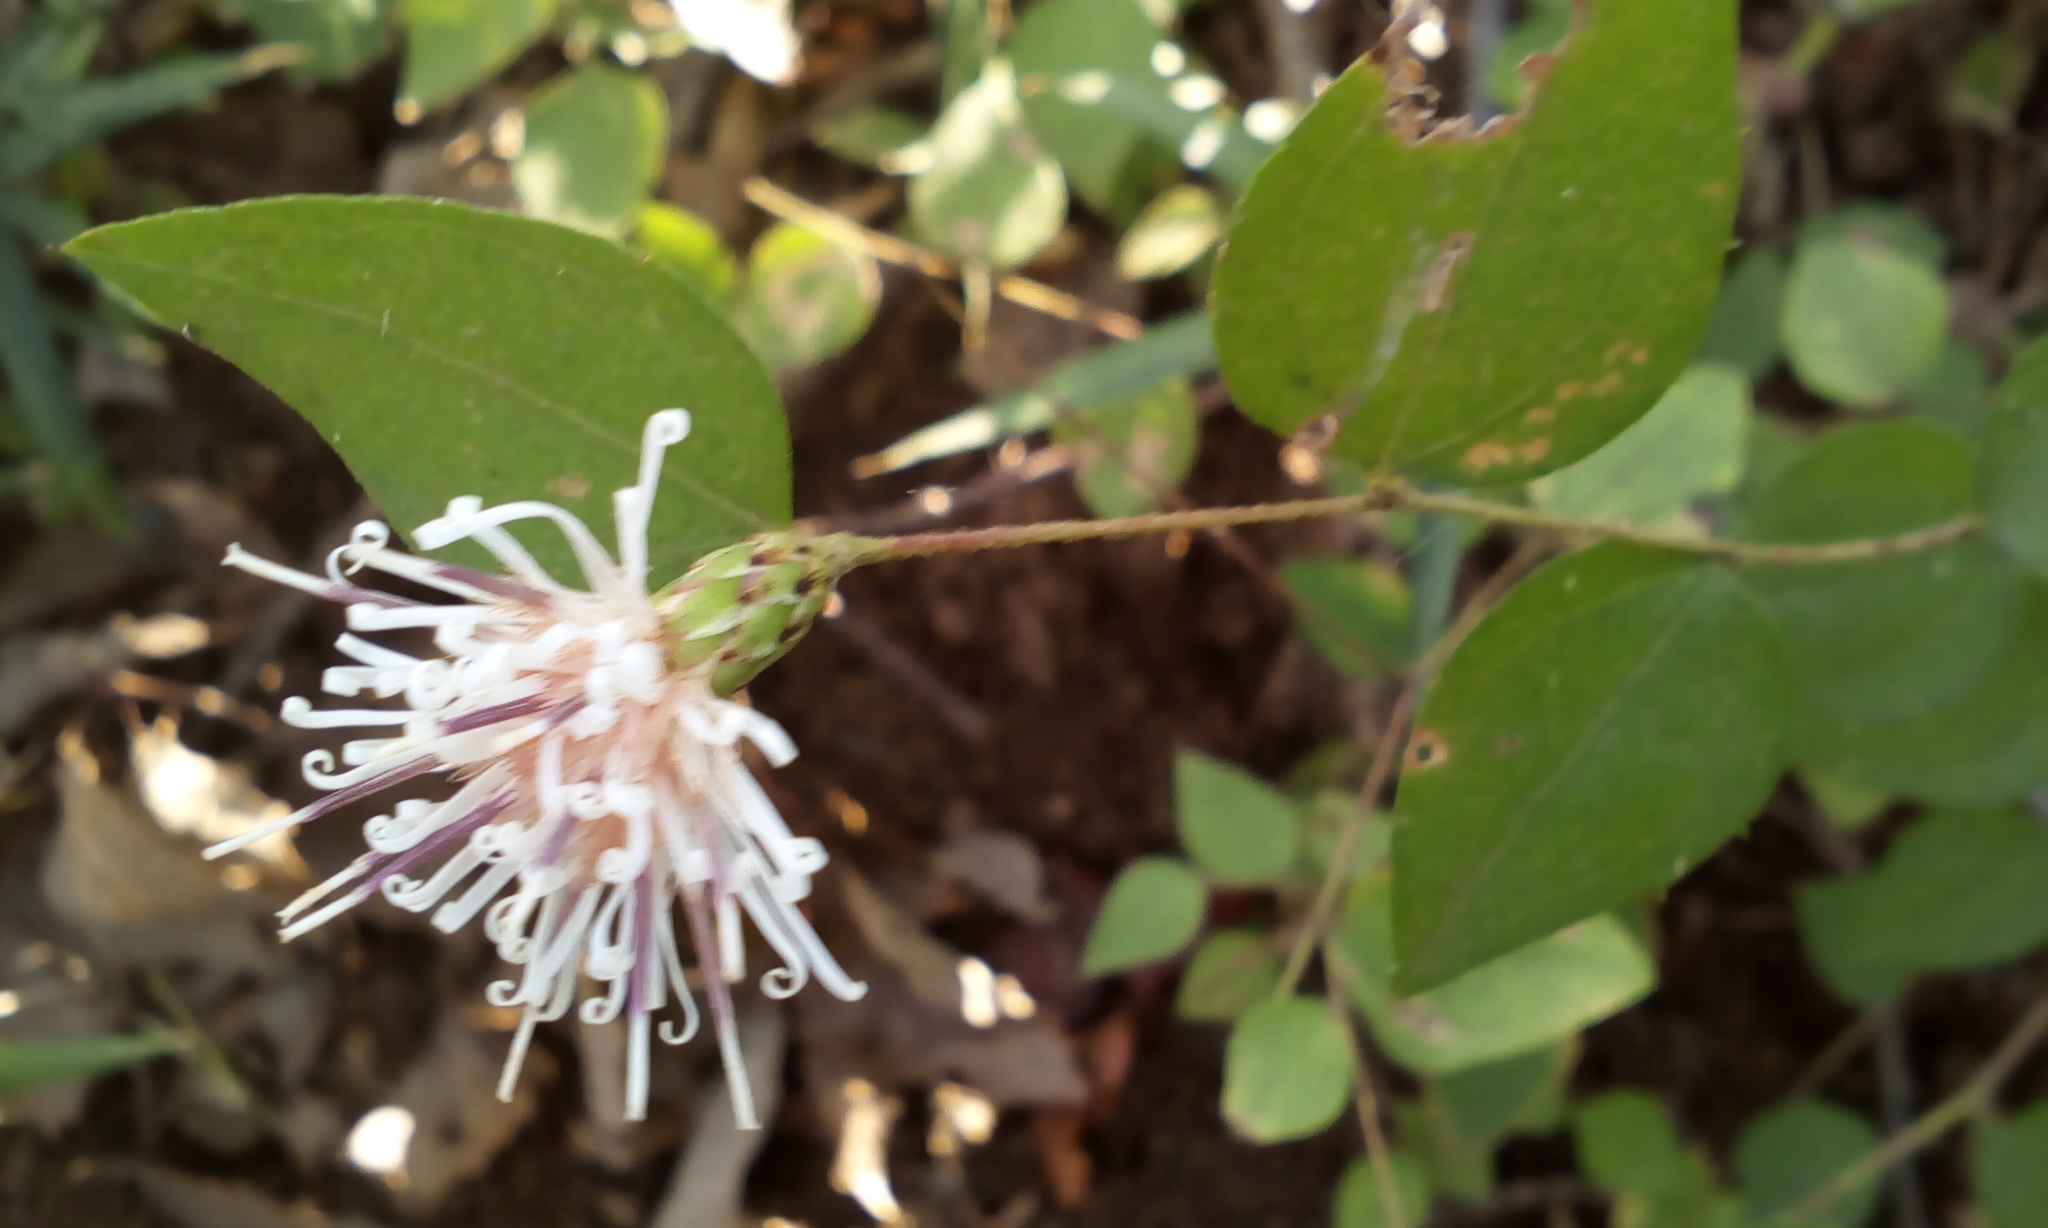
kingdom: Plantae
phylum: Tracheophyta
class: Magnoliopsida
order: Asterales
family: Asteraceae
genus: Pertya
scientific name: Pertya scandens
